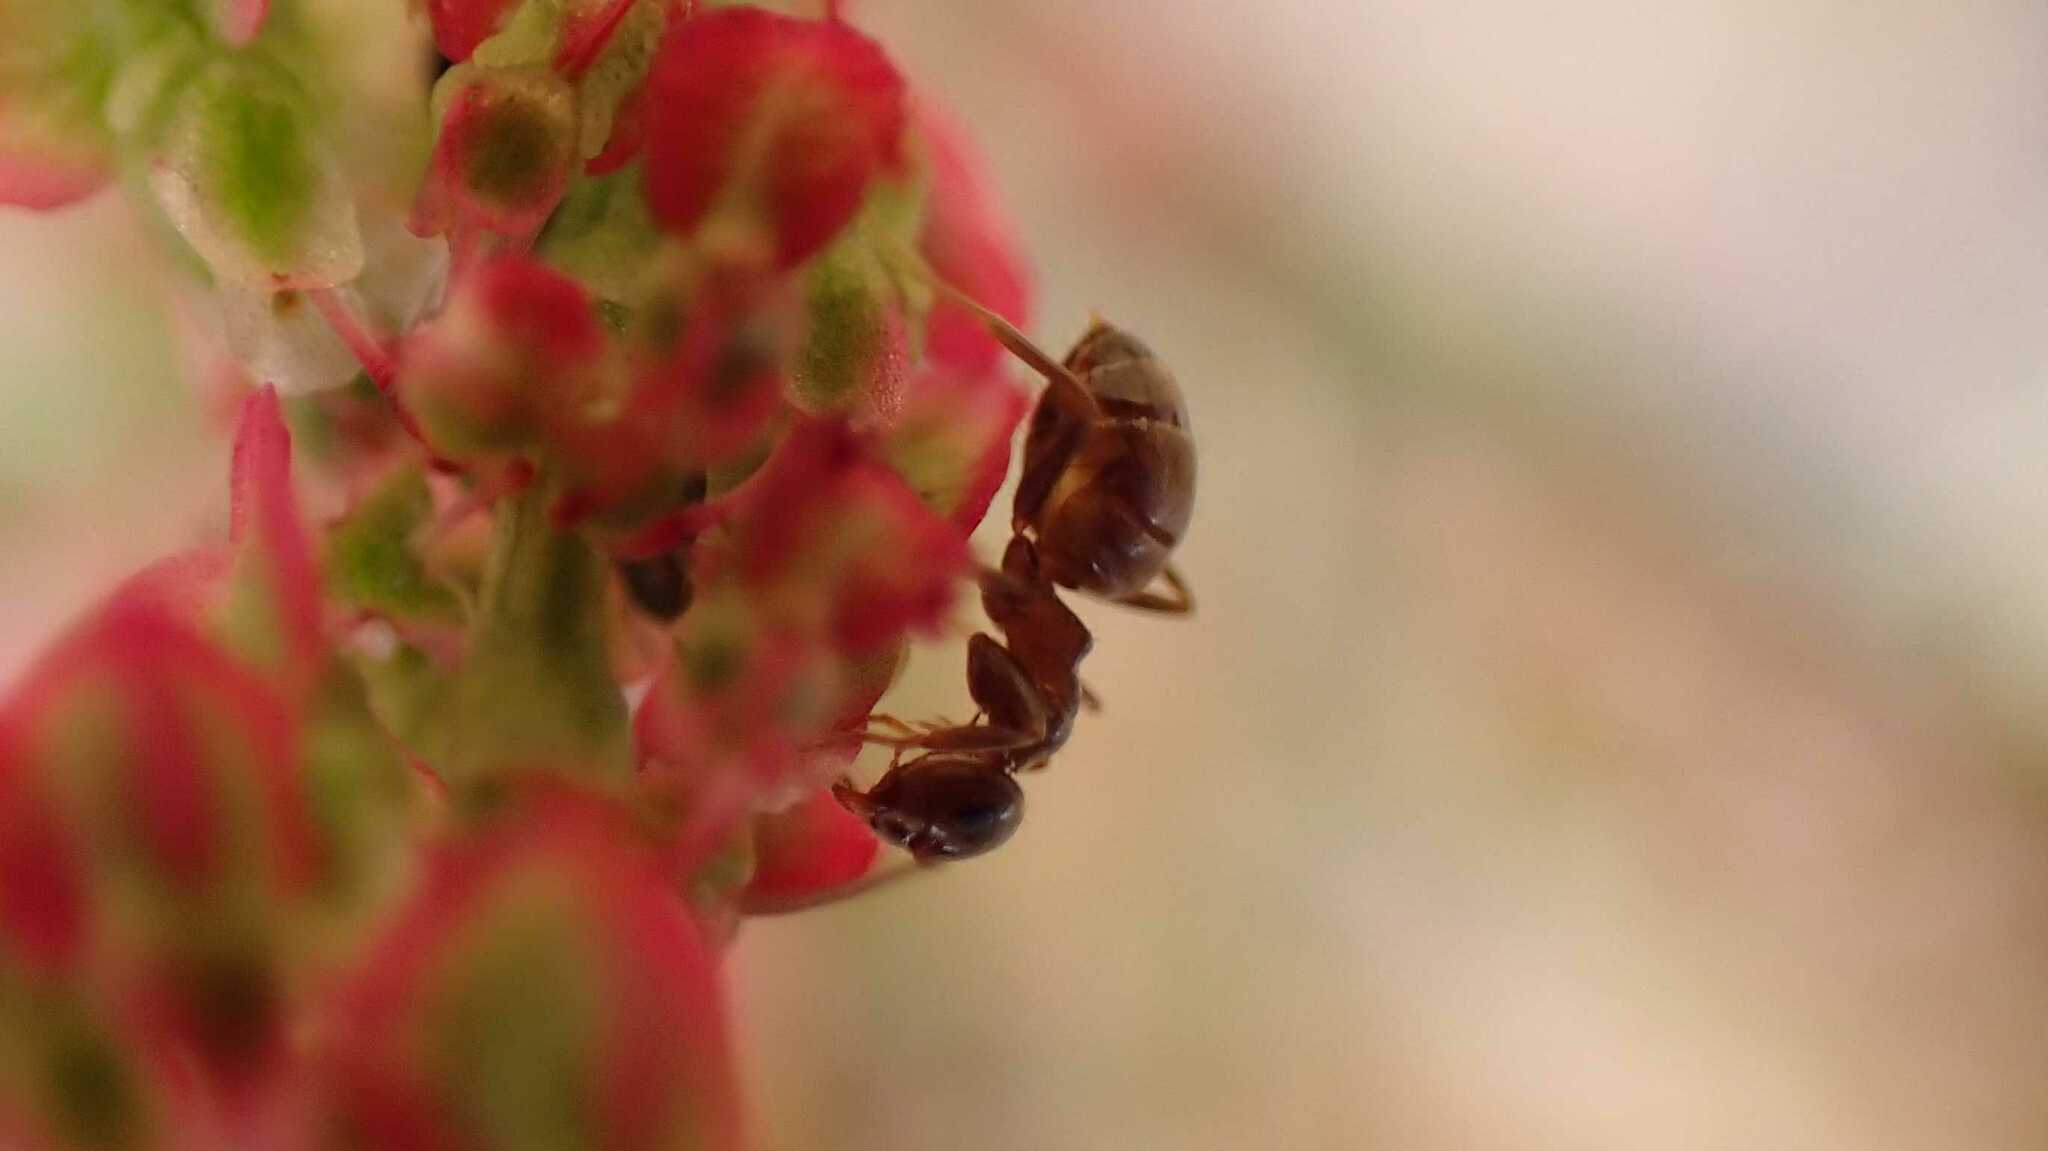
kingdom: Animalia
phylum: Arthropoda
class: Insecta
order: Hymenoptera
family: Formicidae
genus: Lasius
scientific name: Lasius
